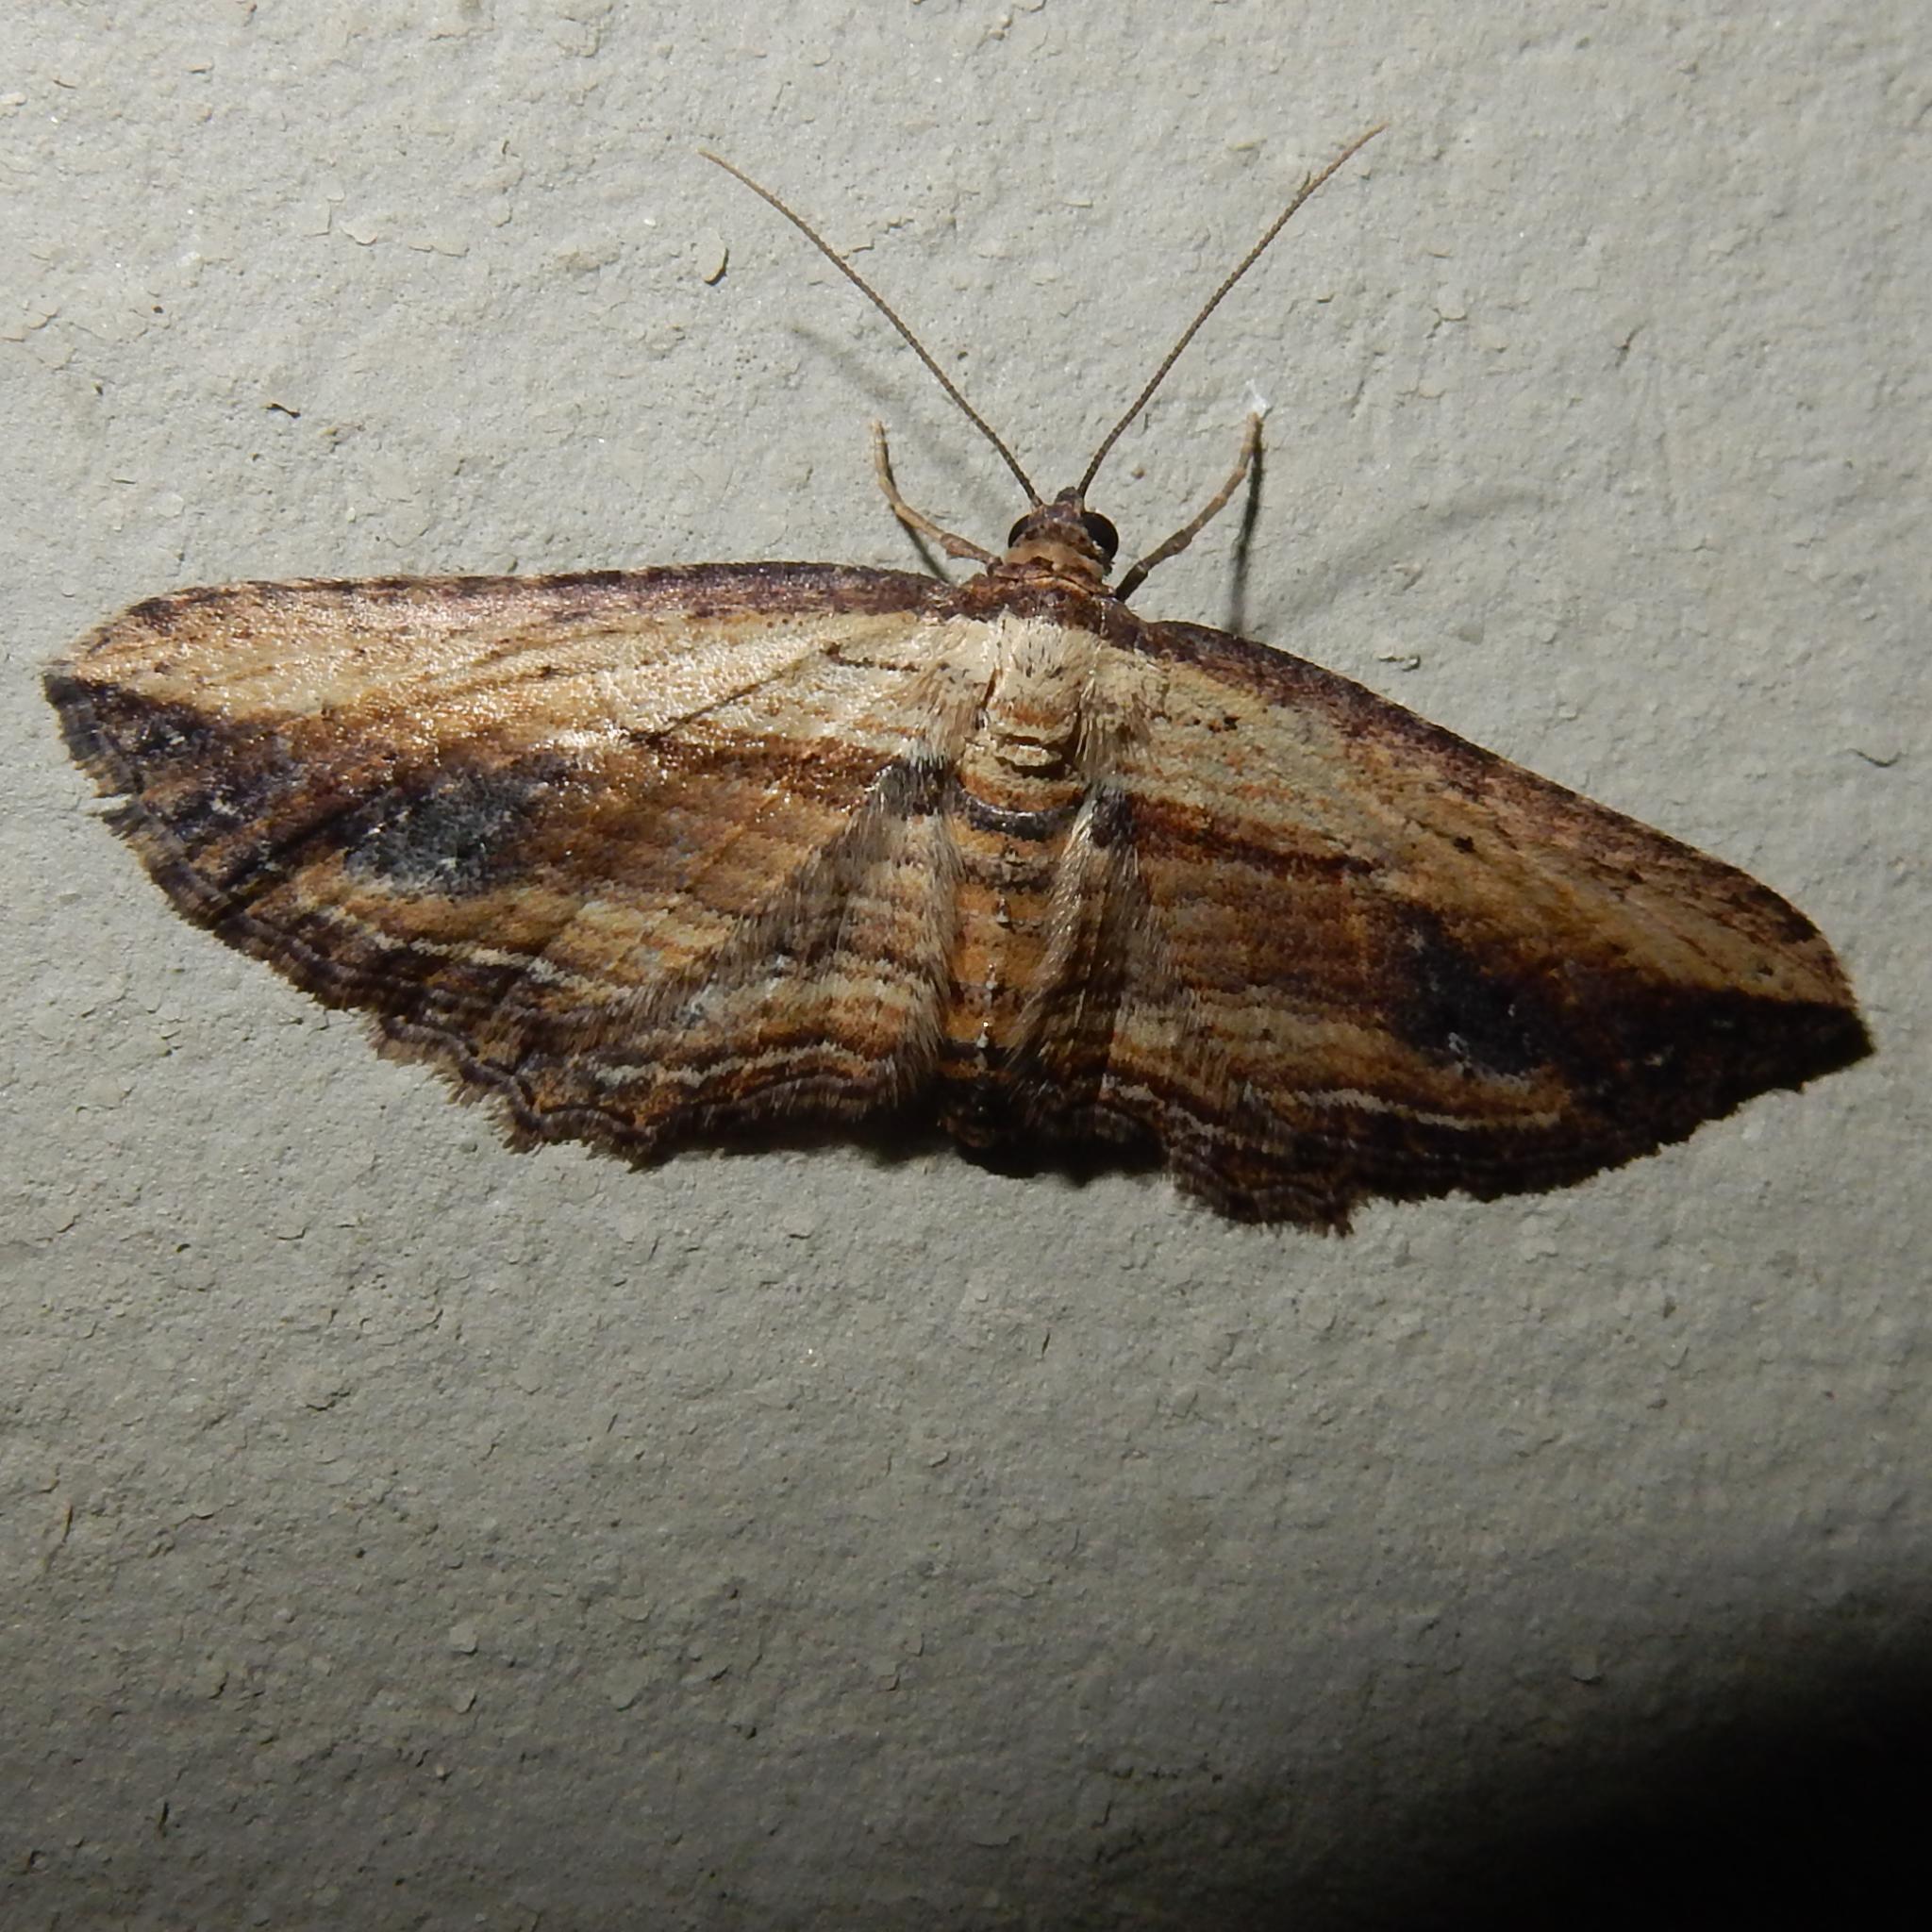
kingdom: Animalia
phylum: Arthropoda
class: Insecta
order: Lepidoptera
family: Geometridae
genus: Horisme
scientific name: Horisme minuata
